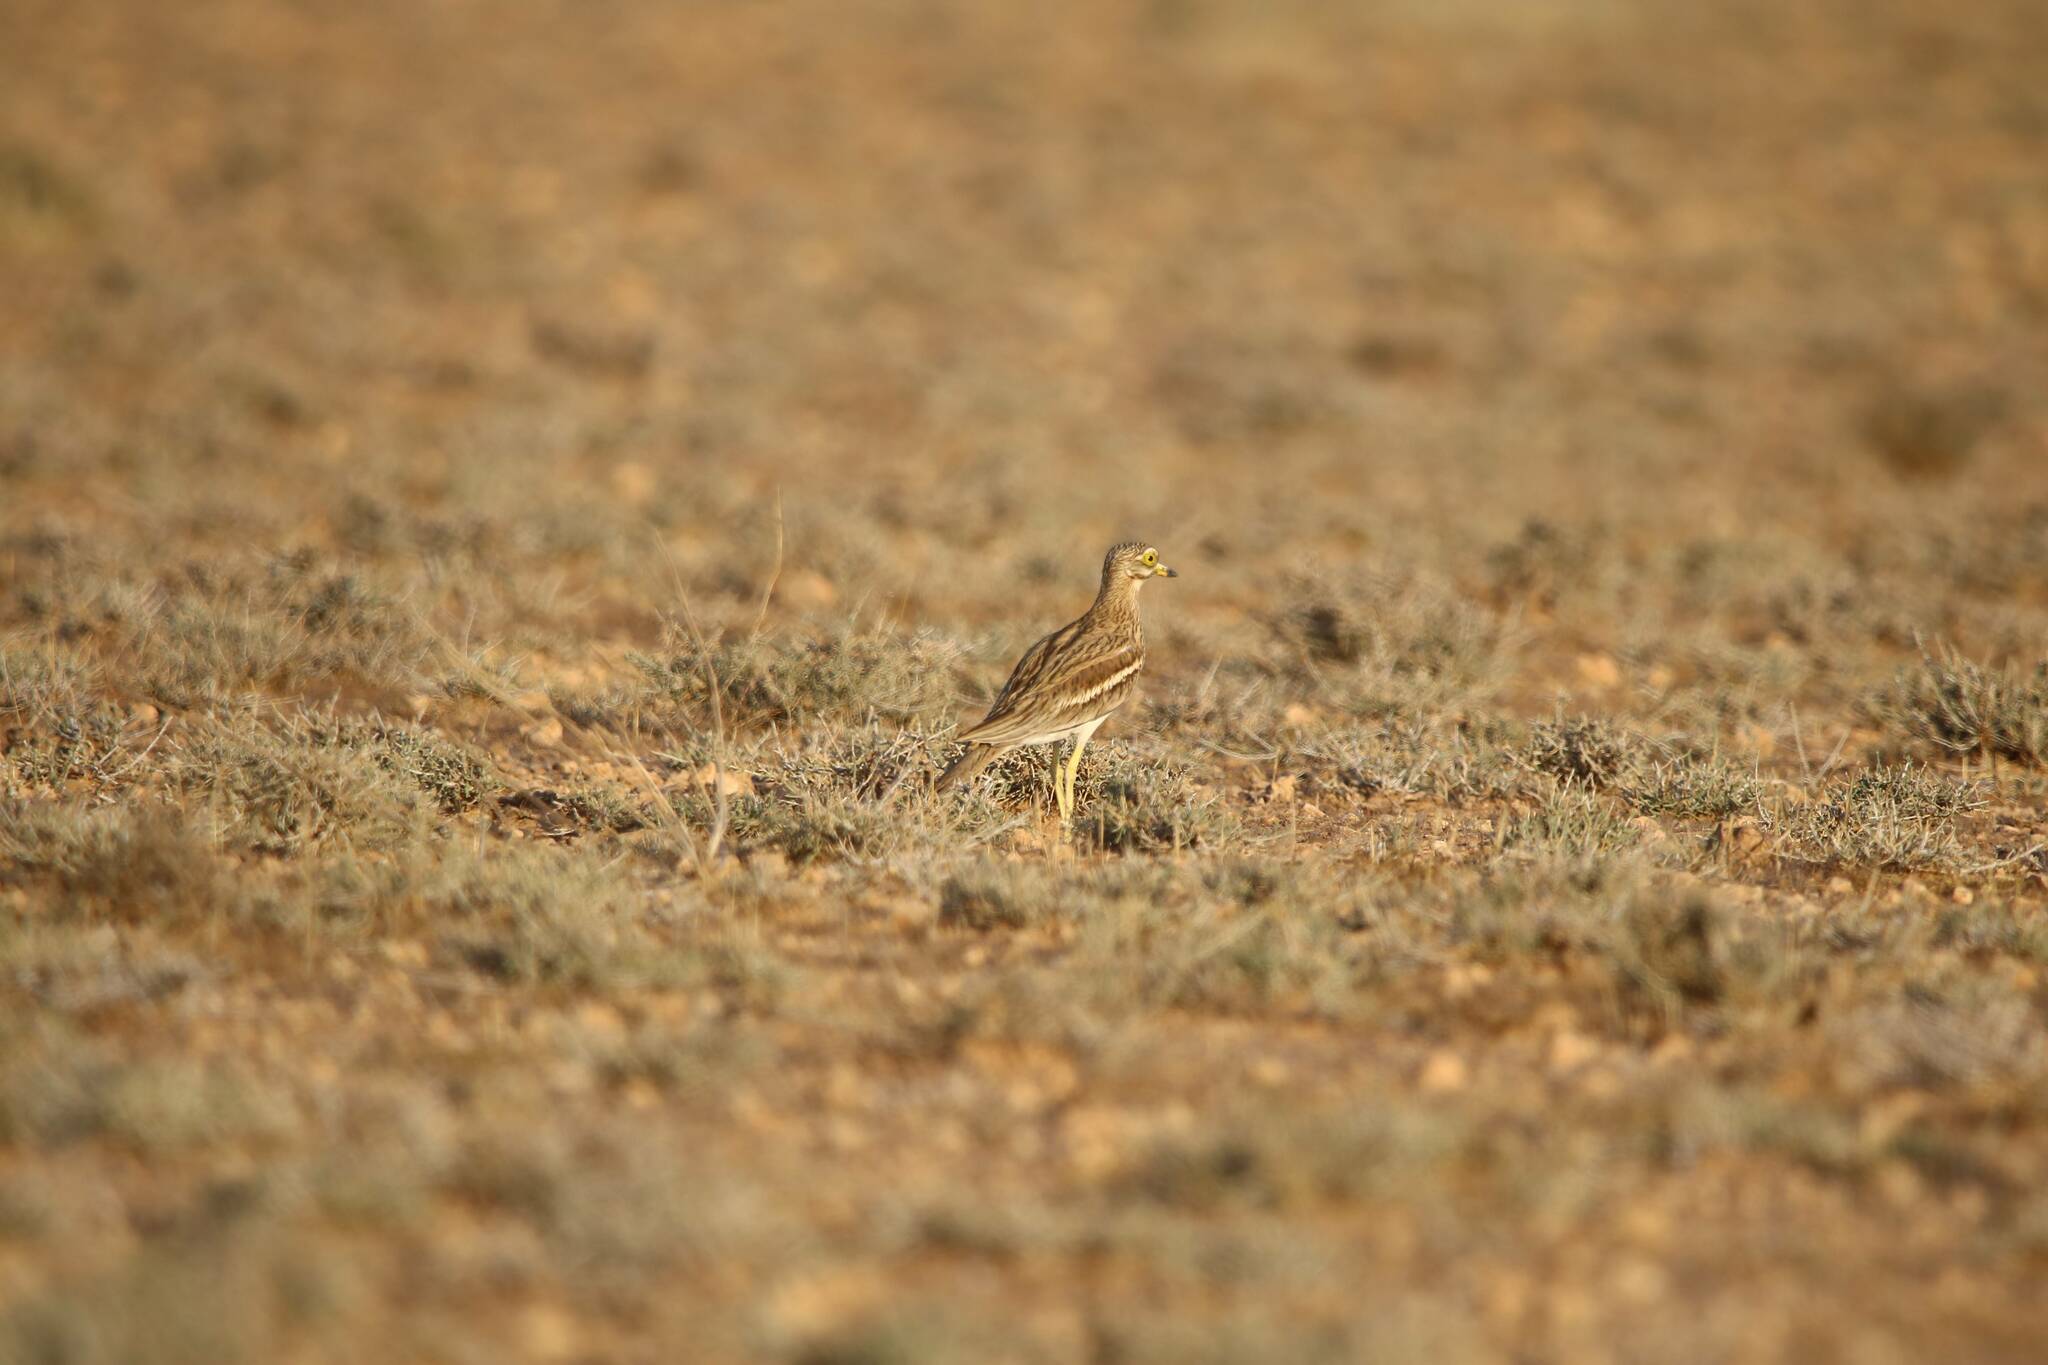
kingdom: Animalia
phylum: Chordata
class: Aves
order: Charadriiformes
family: Burhinidae
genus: Burhinus
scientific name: Burhinus oedicnemus
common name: Eurasian stone-curlew
